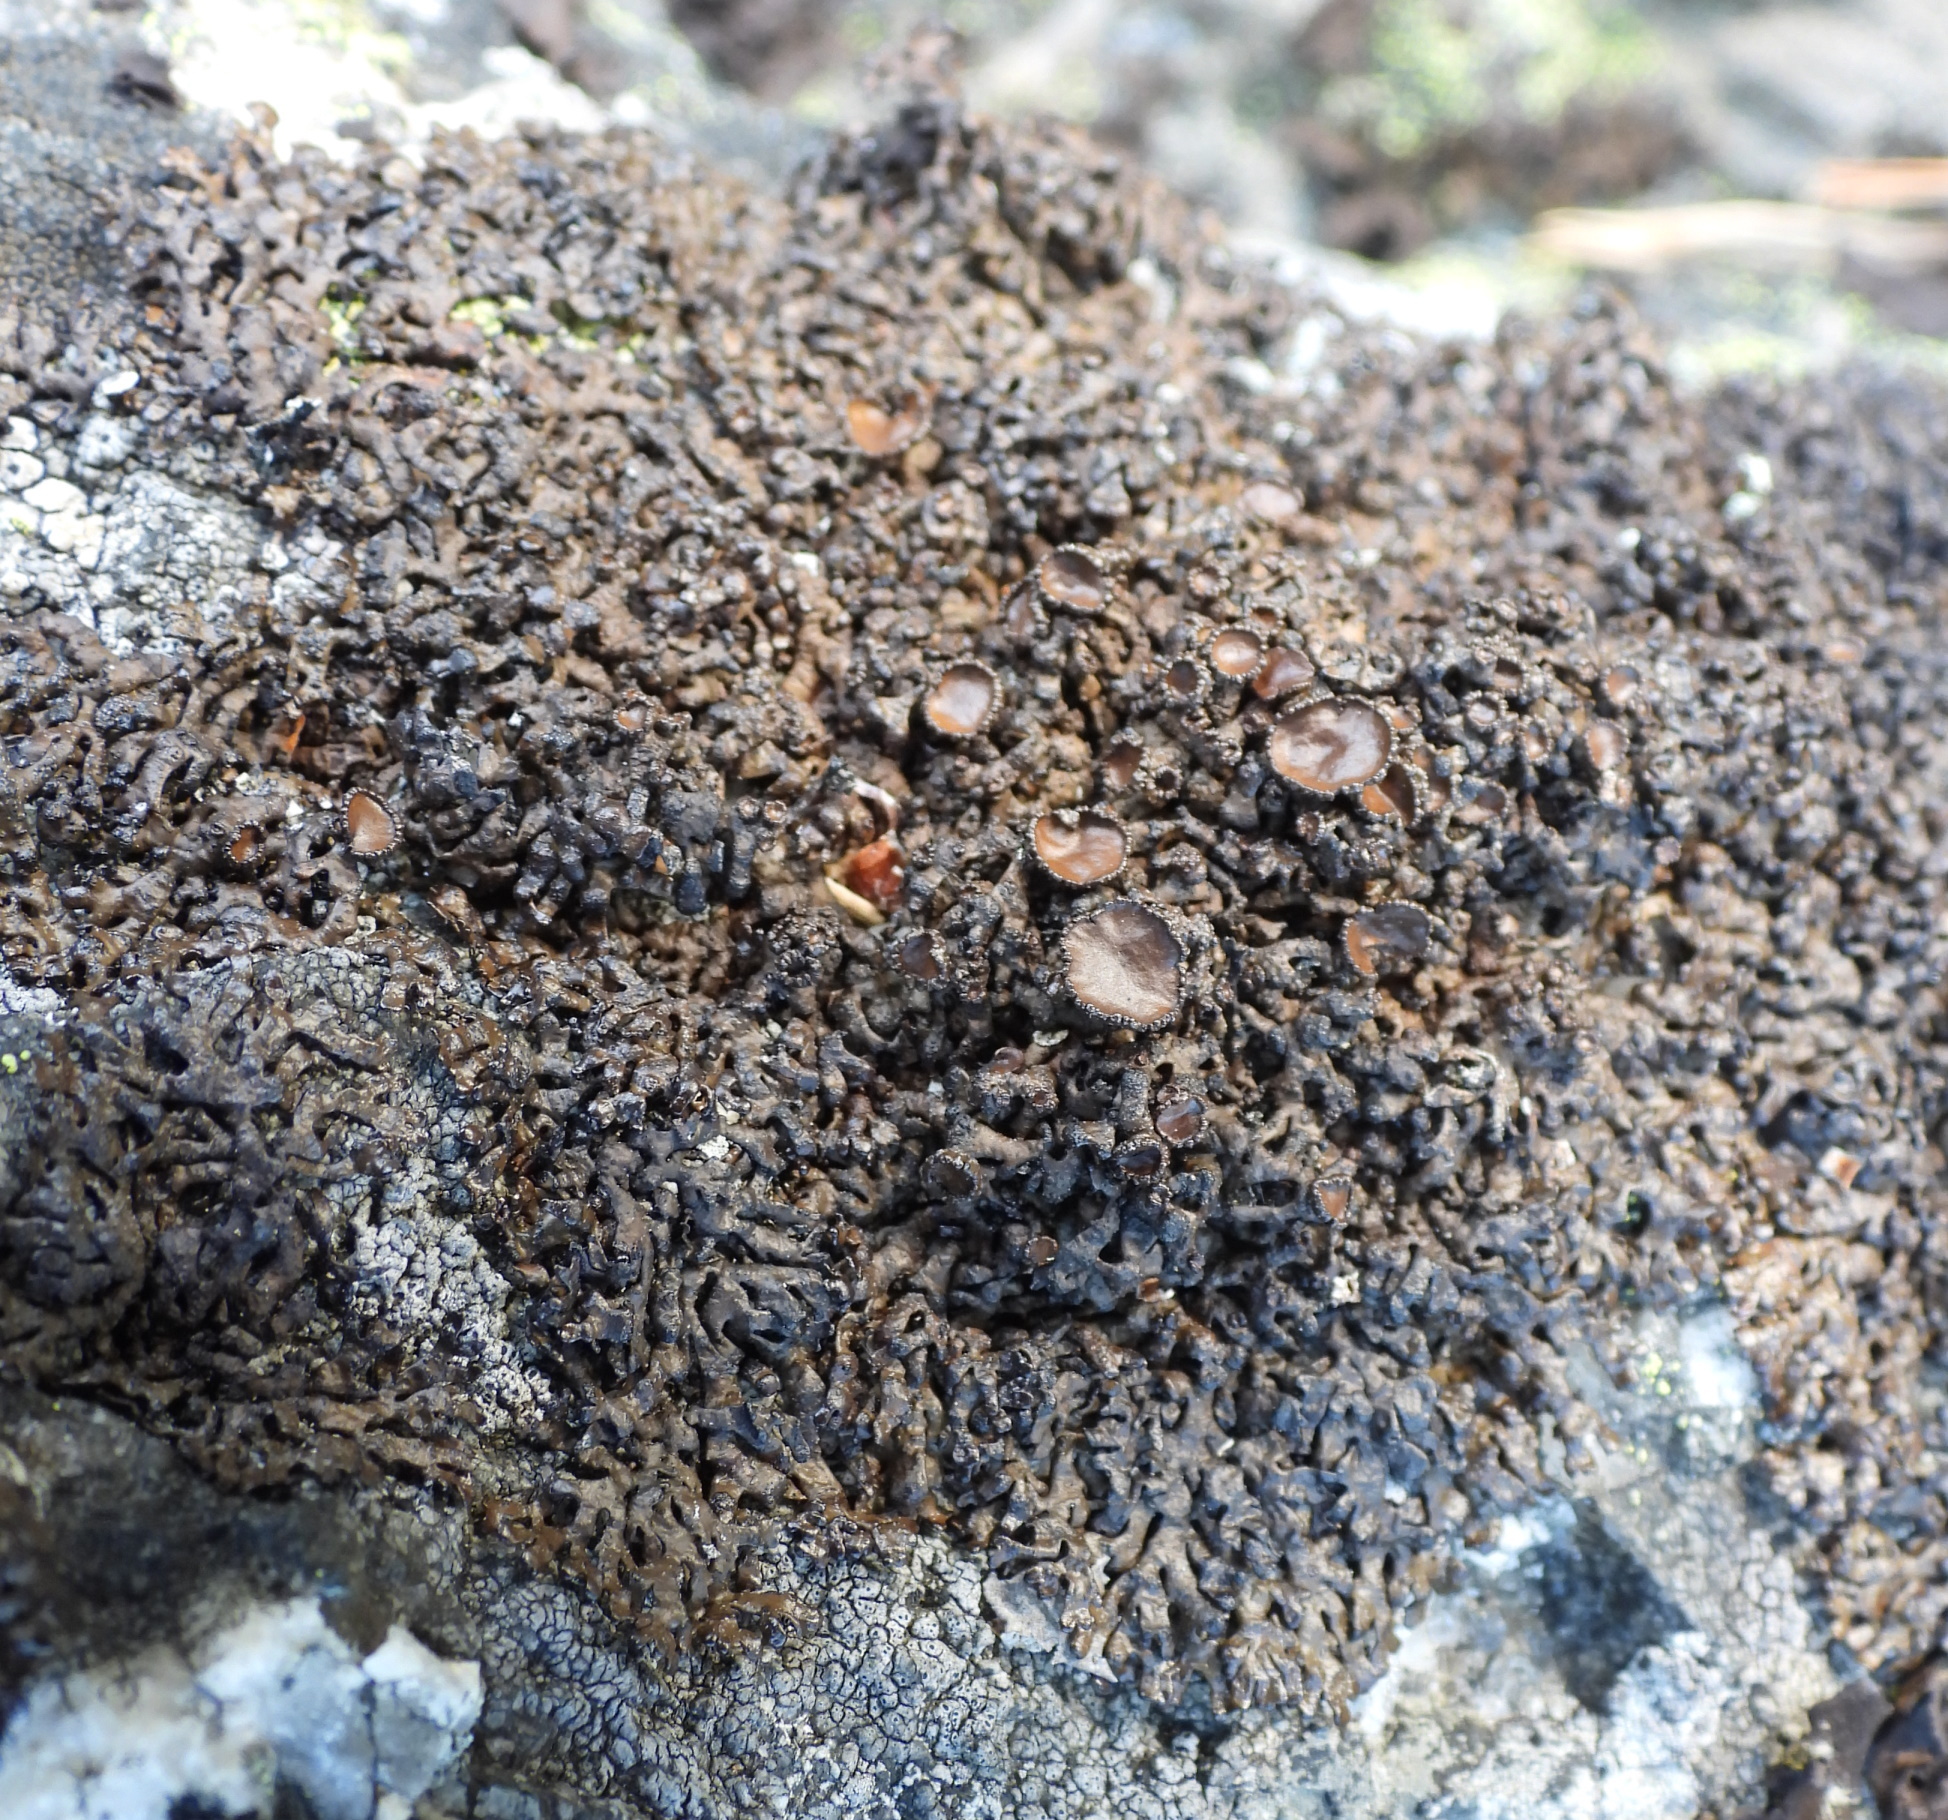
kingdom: Fungi
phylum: Ascomycota
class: Lecanoromycetes
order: Lecanorales
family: Parmeliaceae
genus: Melanelia
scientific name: Melanelia stygia
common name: Alpine camouflage lichen
